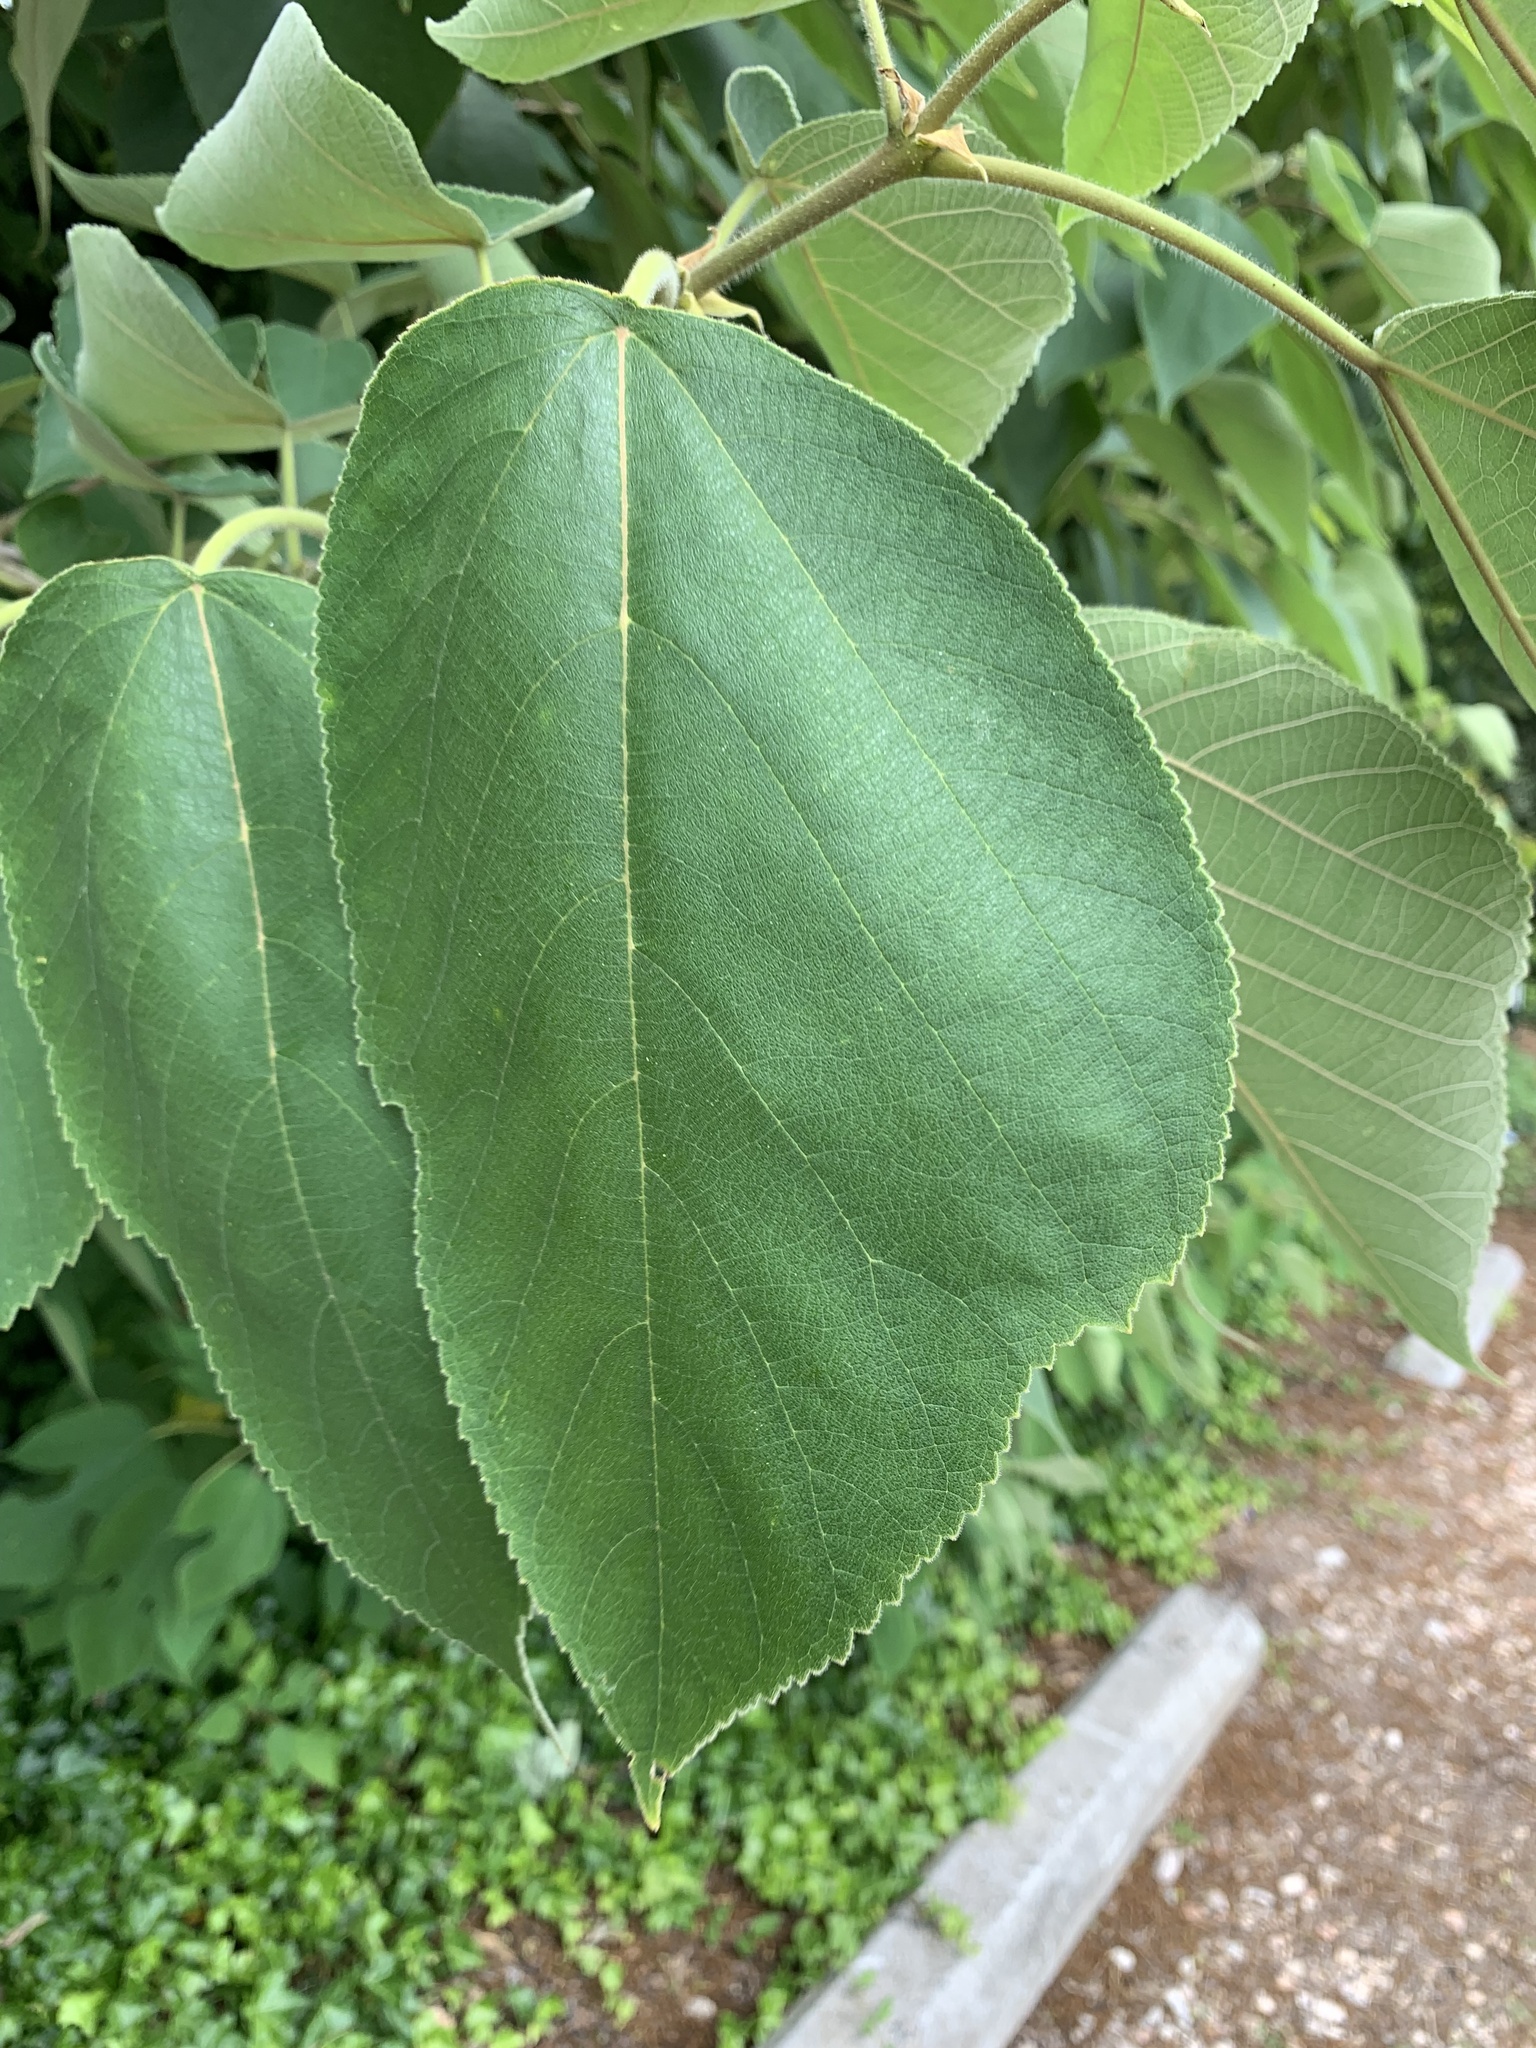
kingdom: Plantae
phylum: Tracheophyta
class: Magnoliopsida
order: Rosales
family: Moraceae
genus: Broussonetia
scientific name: Broussonetia papyrifera
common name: Paper mulberry
